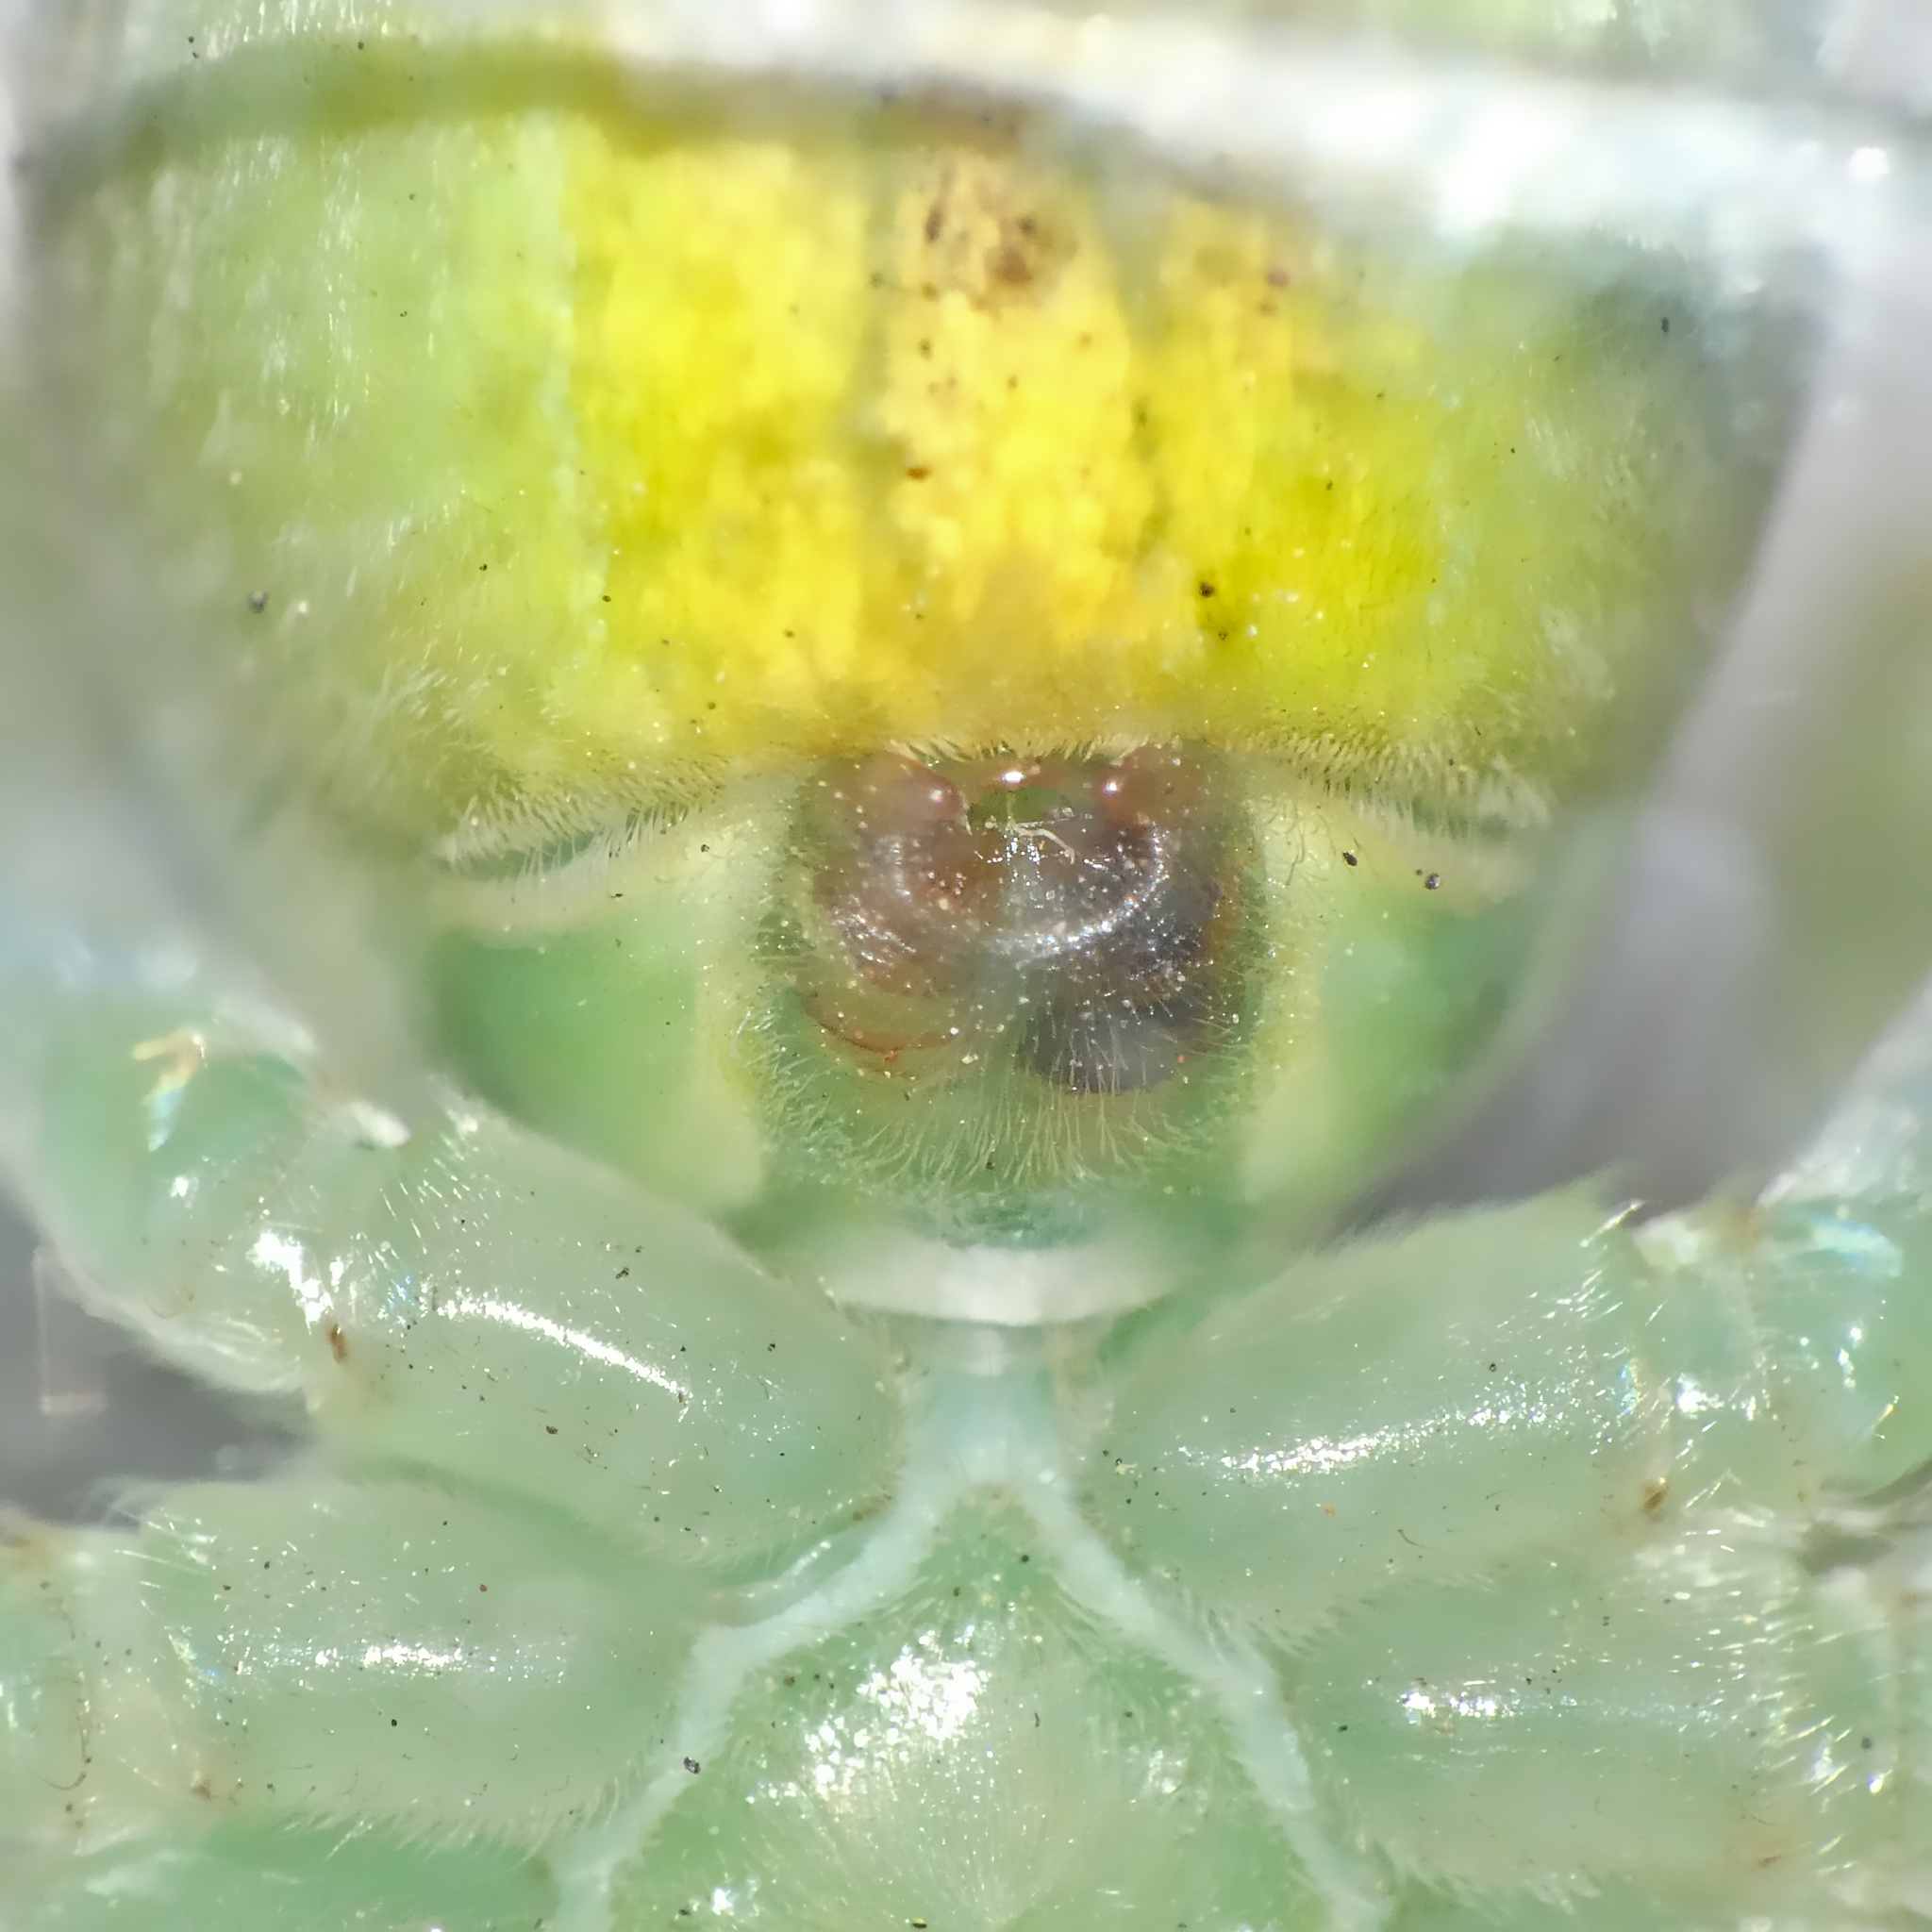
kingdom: Animalia
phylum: Arthropoda
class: Arachnida
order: Araneae
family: Sparassidae
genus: Olios
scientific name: Olios auricomis
